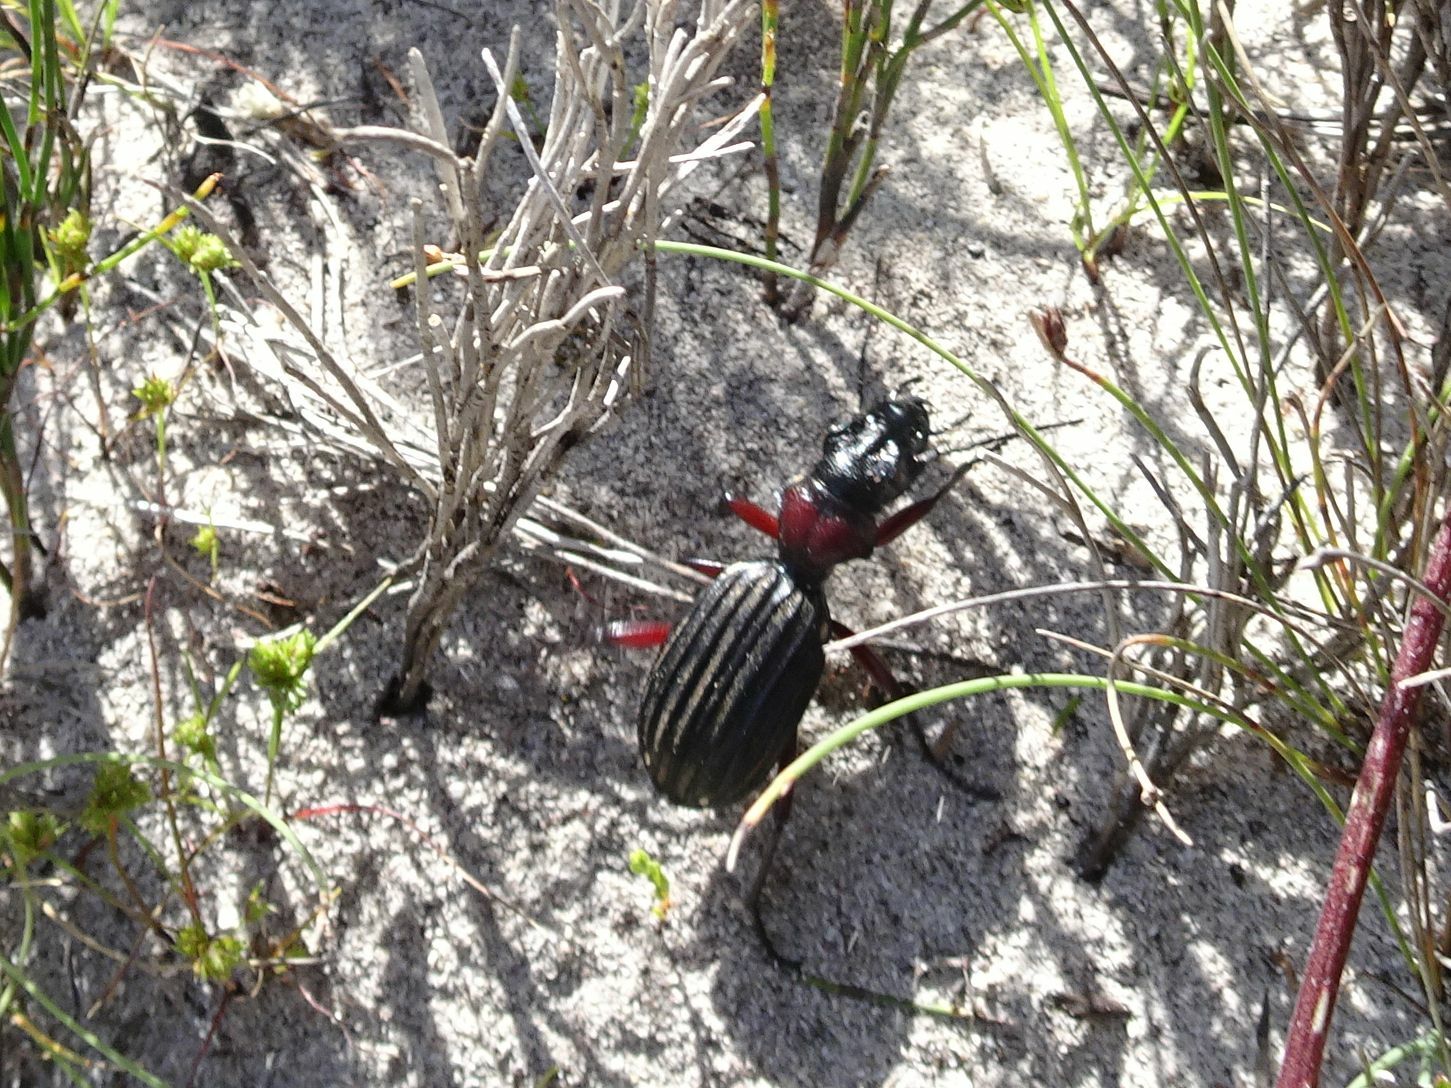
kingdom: Animalia
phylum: Arthropoda
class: Insecta
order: Coleoptera
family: Carabidae
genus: Anthia
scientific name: Anthia decemguttata
